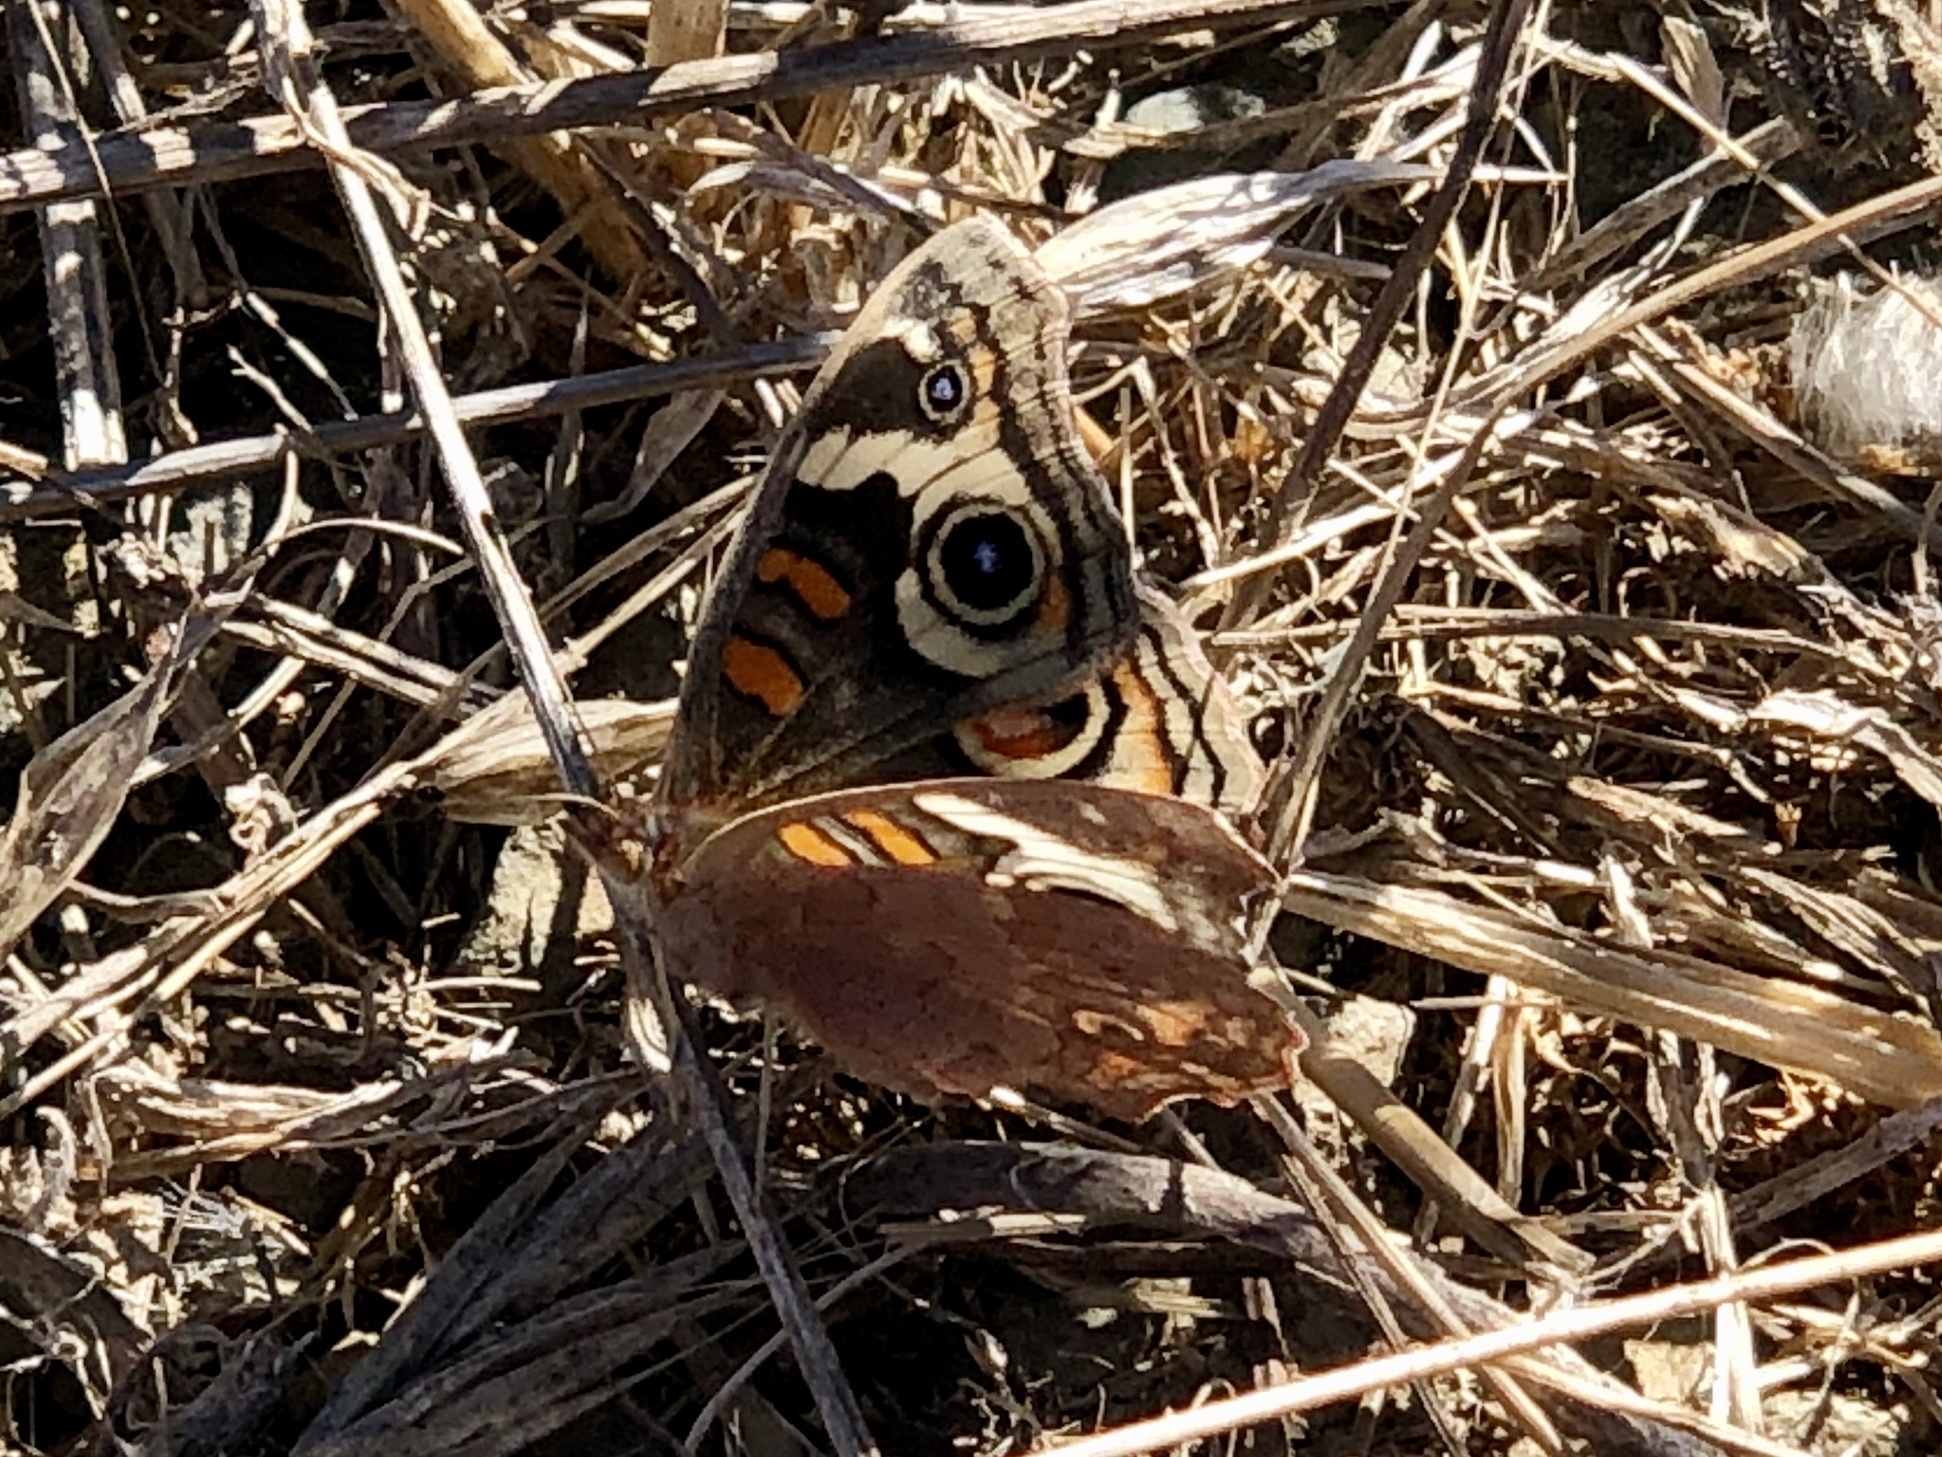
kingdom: Animalia
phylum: Arthropoda
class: Insecta
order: Lepidoptera
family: Nymphalidae
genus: Junonia
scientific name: Junonia grisea
